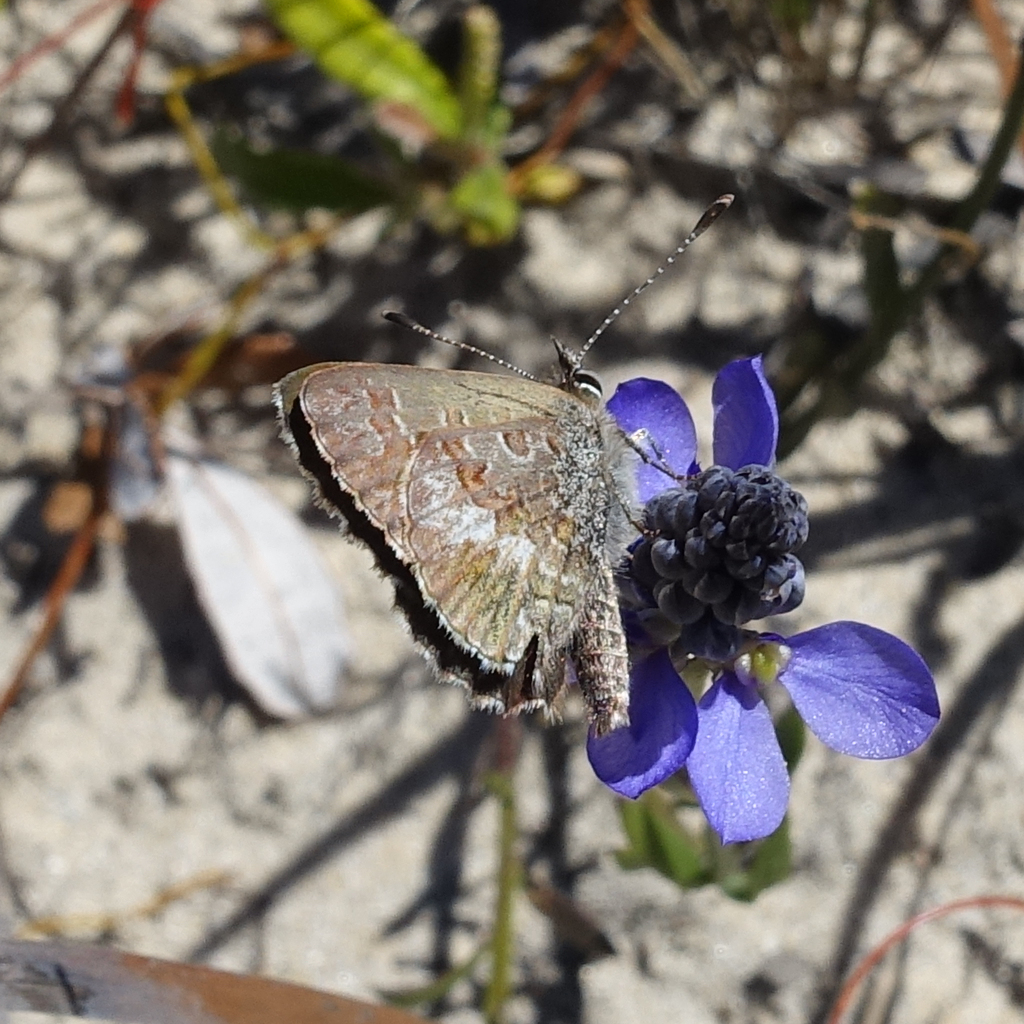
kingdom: Animalia
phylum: Arthropoda
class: Insecta
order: Lepidoptera
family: Lycaenidae
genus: Neolucia
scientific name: Neolucia agricola
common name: Fringed blue
